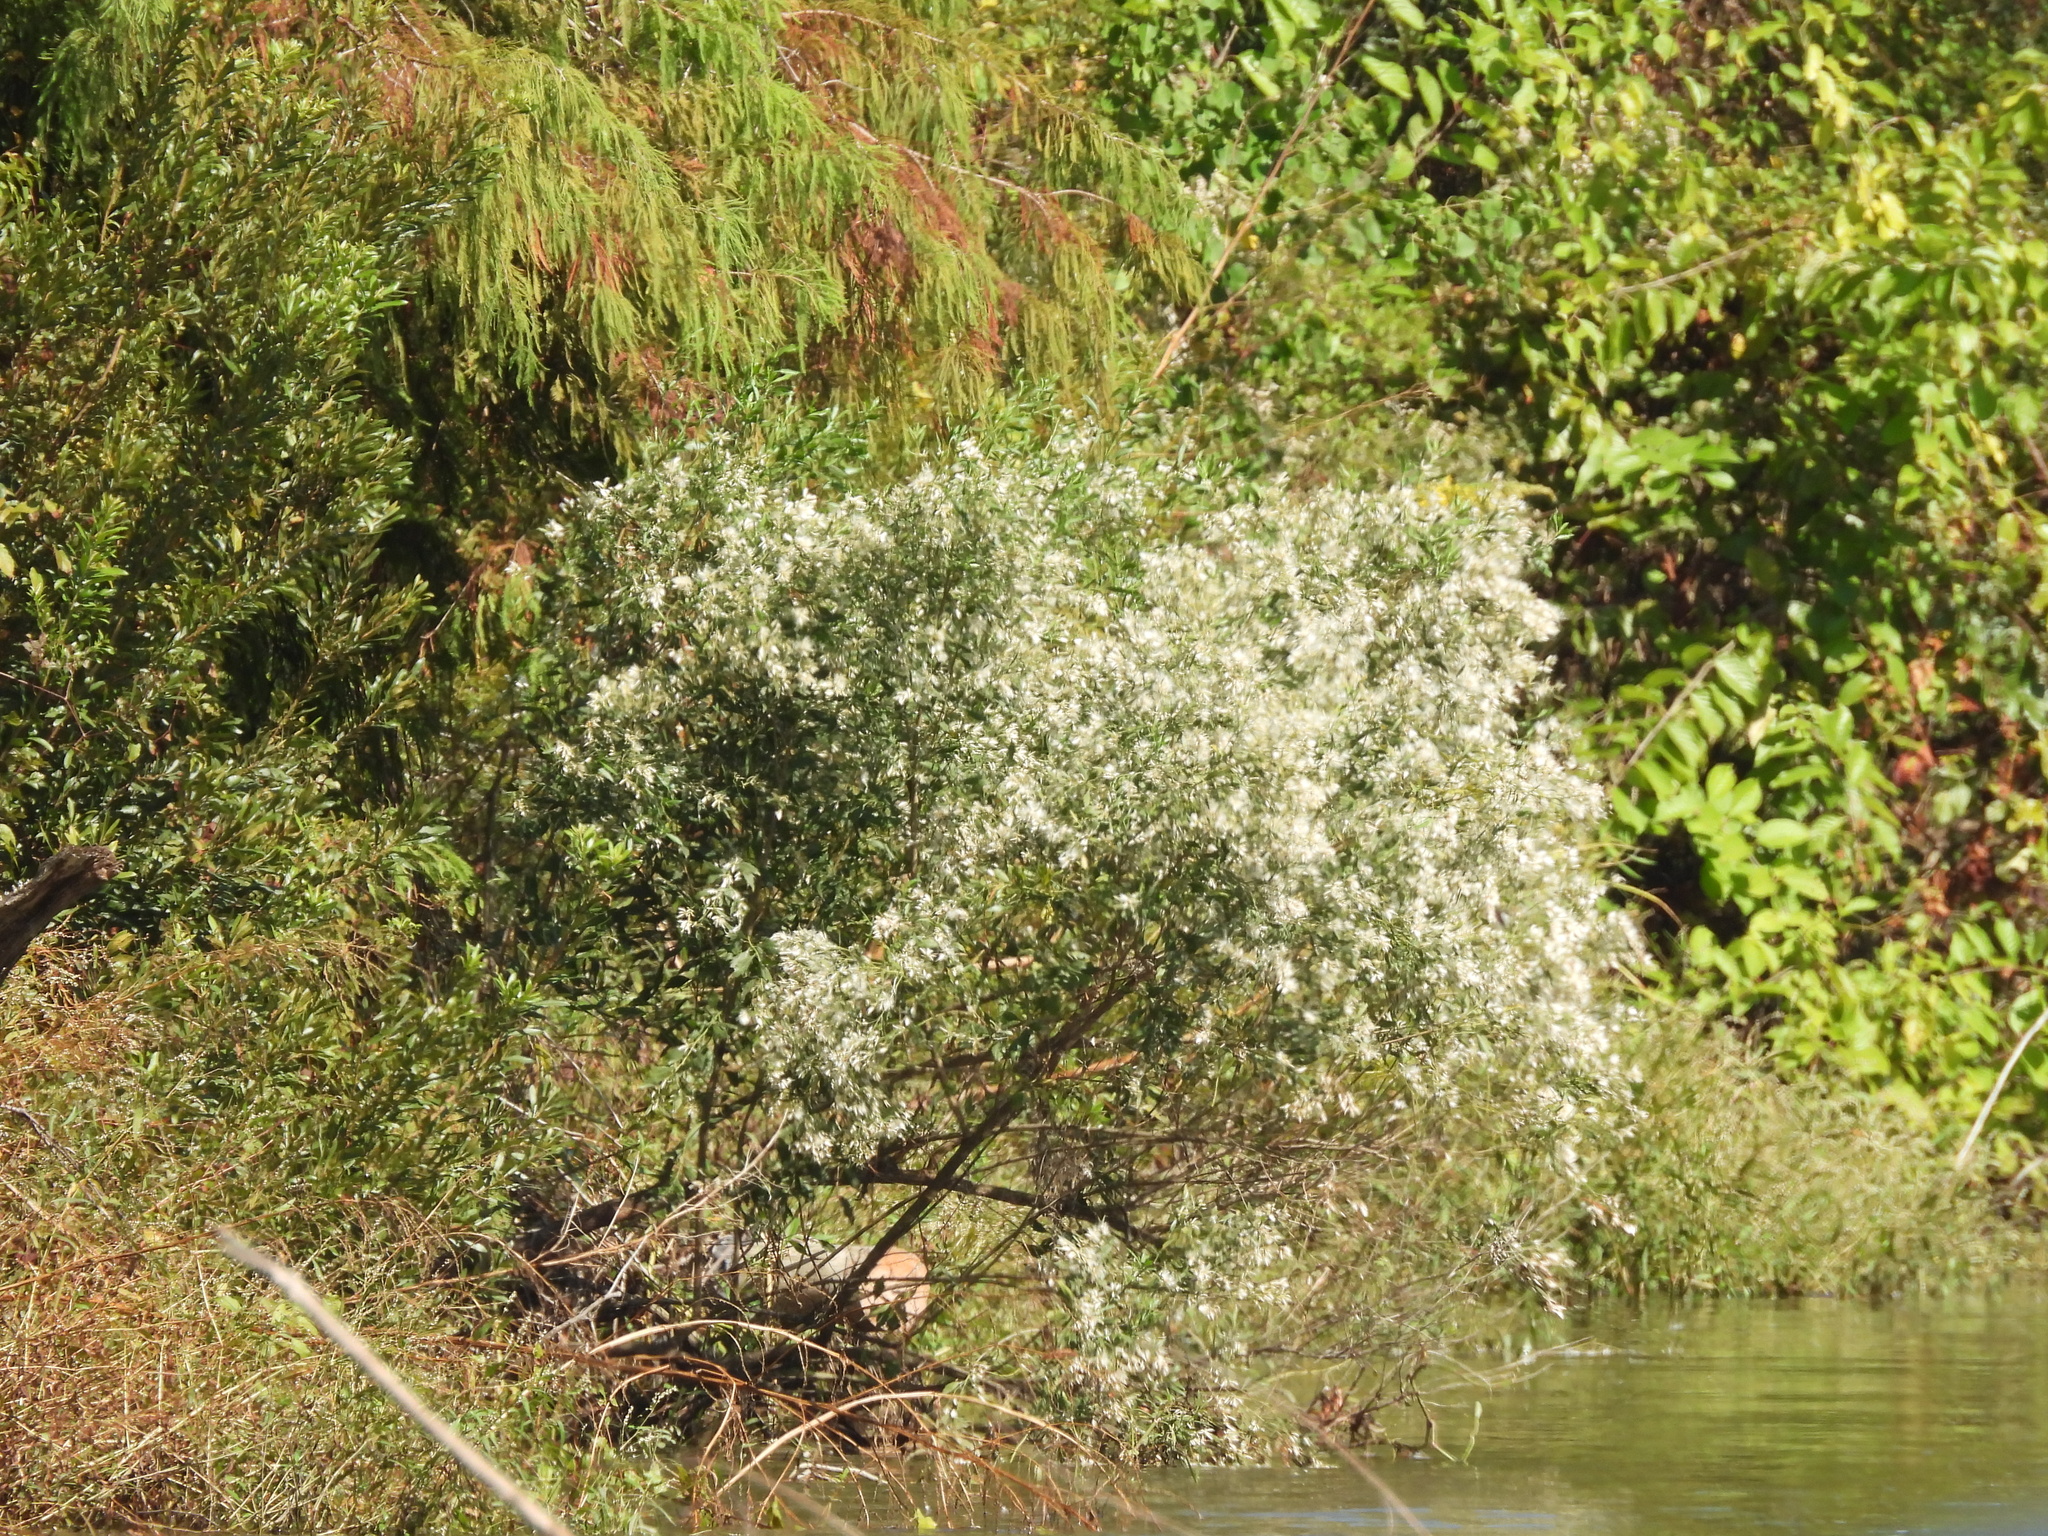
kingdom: Plantae
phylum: Tracheophyta
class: Magnoliopsida
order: Asterales
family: Asteraceae
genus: Baccharis
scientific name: Baccharis halimifolia
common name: Eastern baccharis
